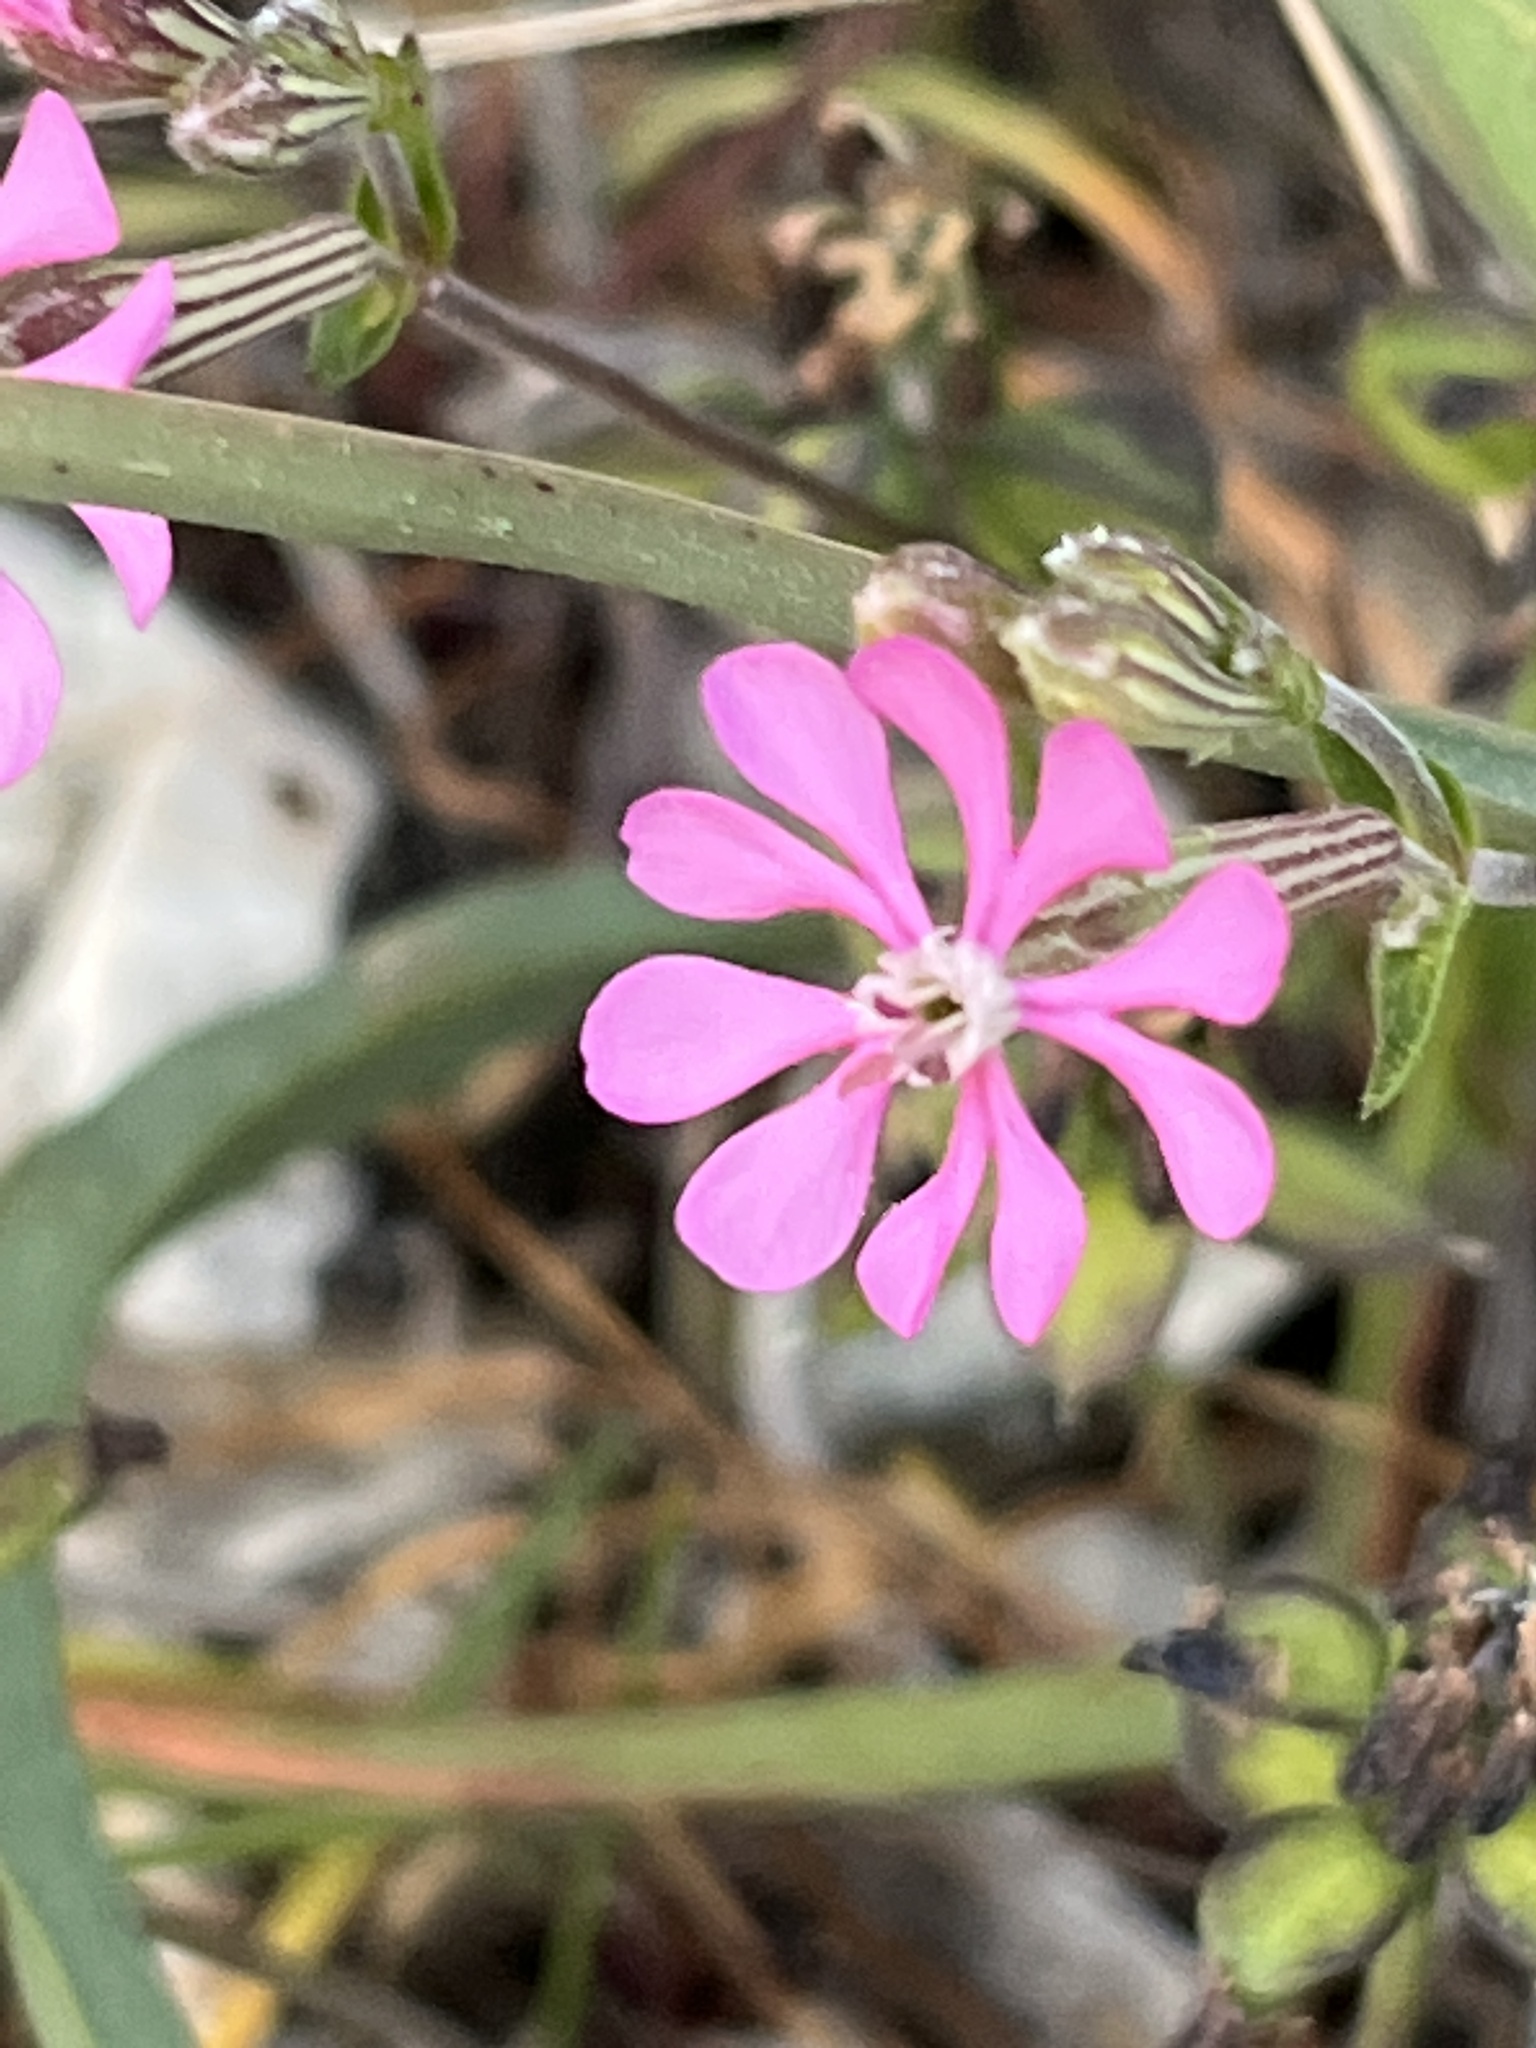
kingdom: Plantae
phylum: Tracheophyta
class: Magnoliopsida
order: Caryophyllales
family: Caryophyllaceae
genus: Silene
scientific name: Silene colorata
